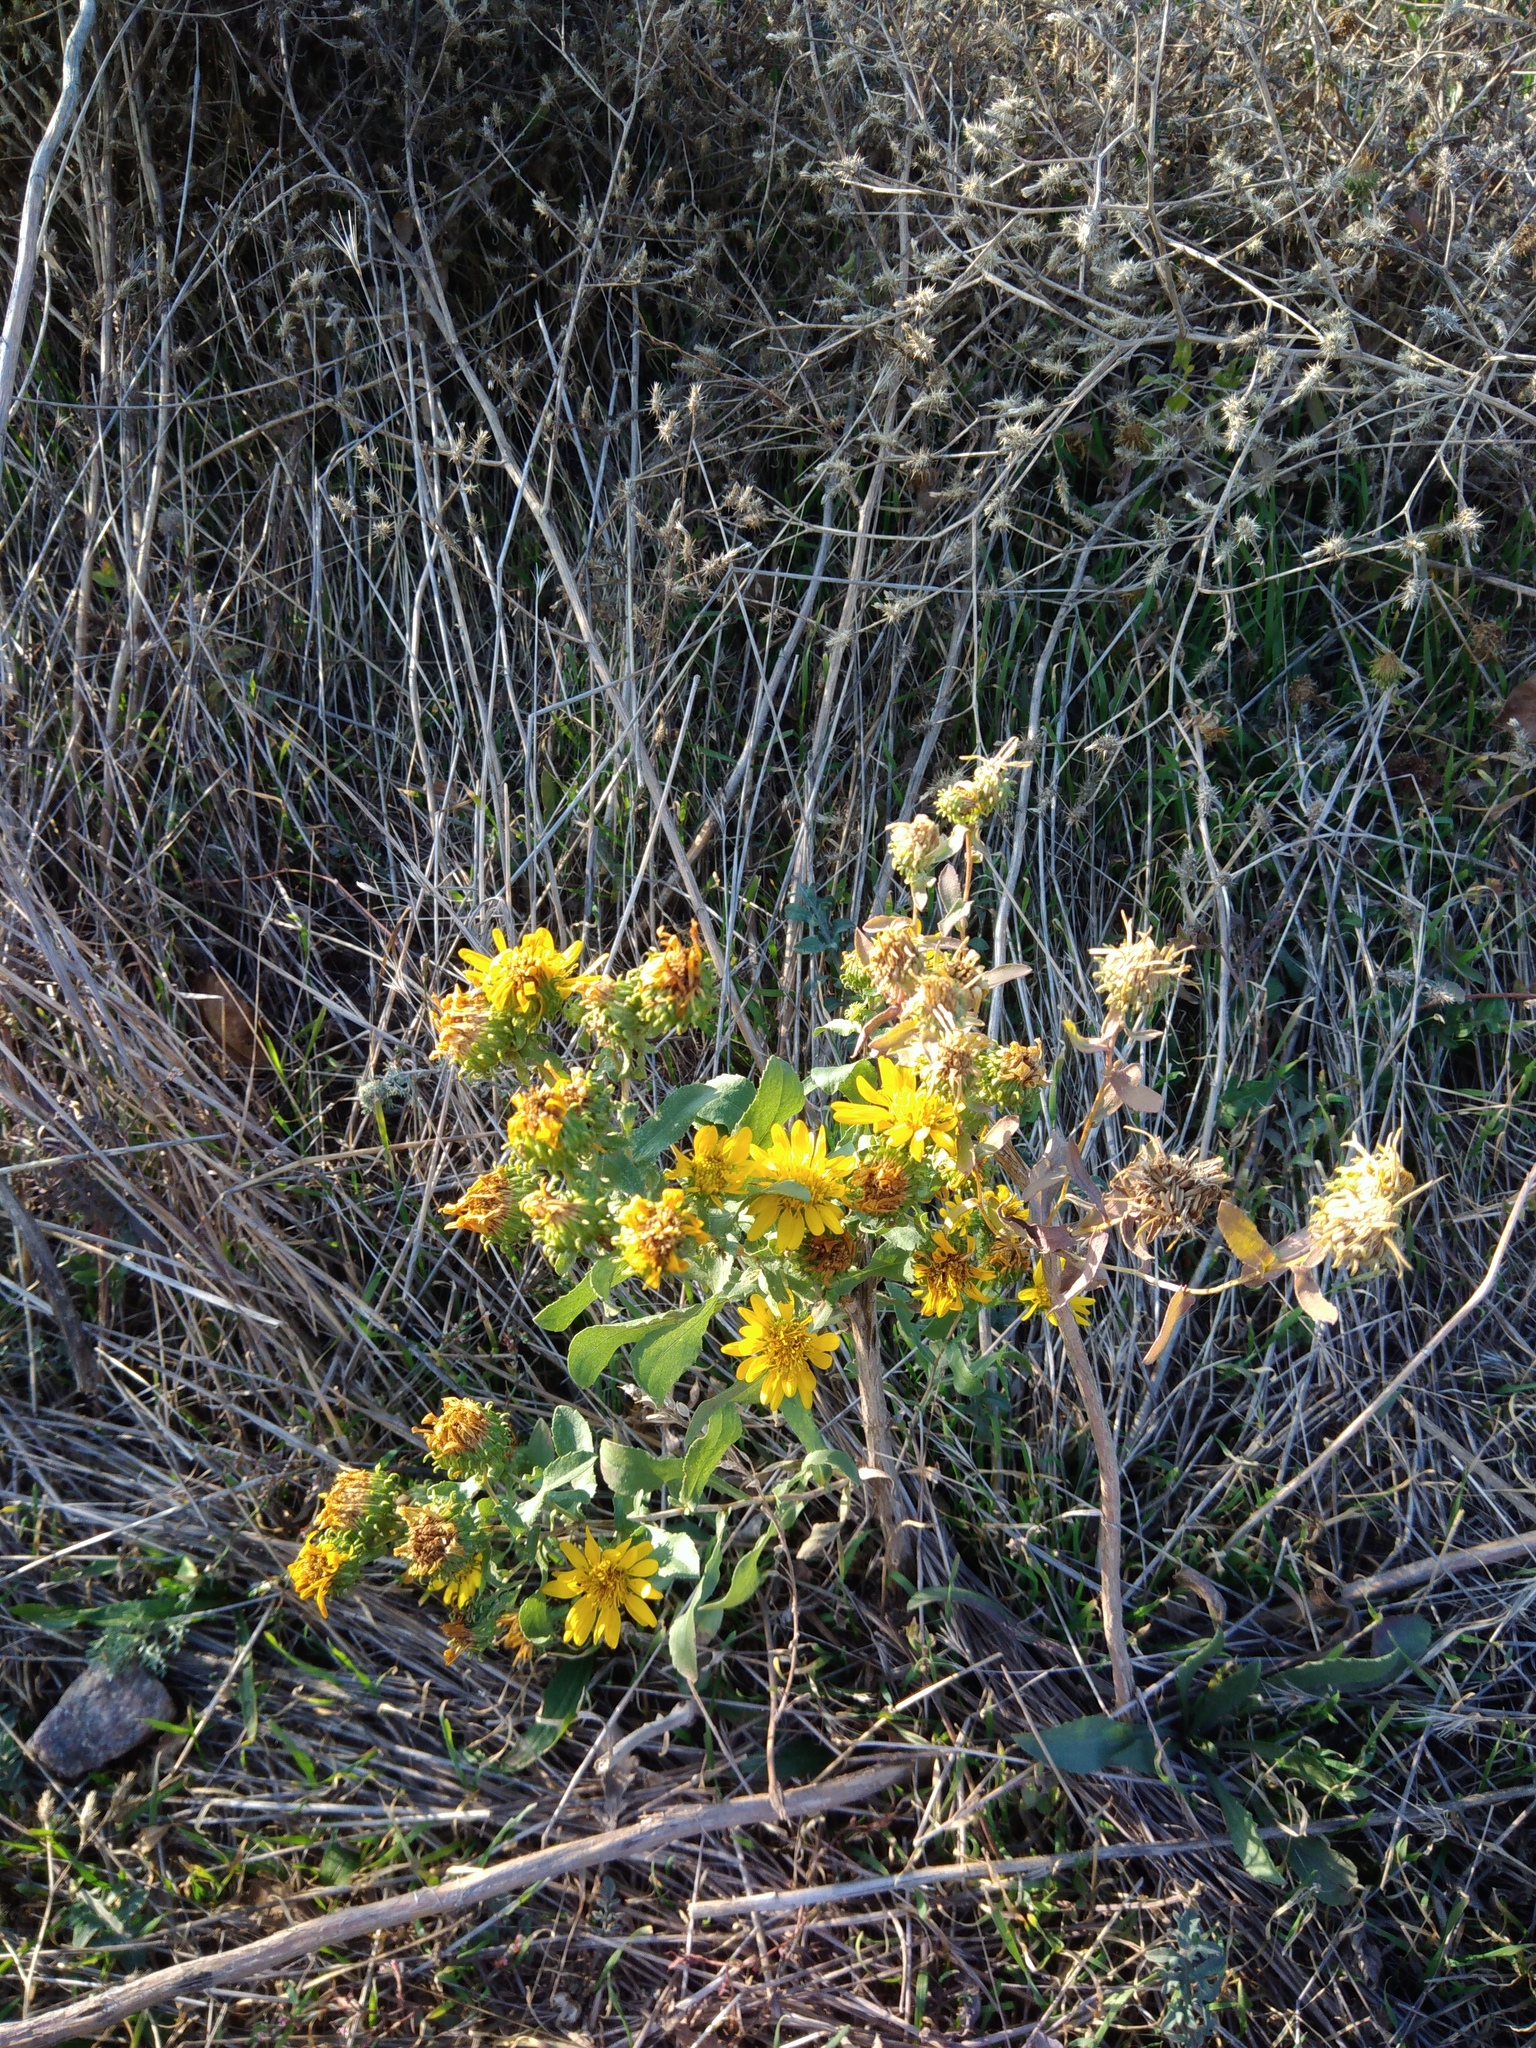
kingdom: Plantae
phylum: Tracheophyta
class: Magnoliopsida
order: Asterales
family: Asteraceae
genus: Grindelia
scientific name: Grindelia squarrosa
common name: Curly-cup gumweed
